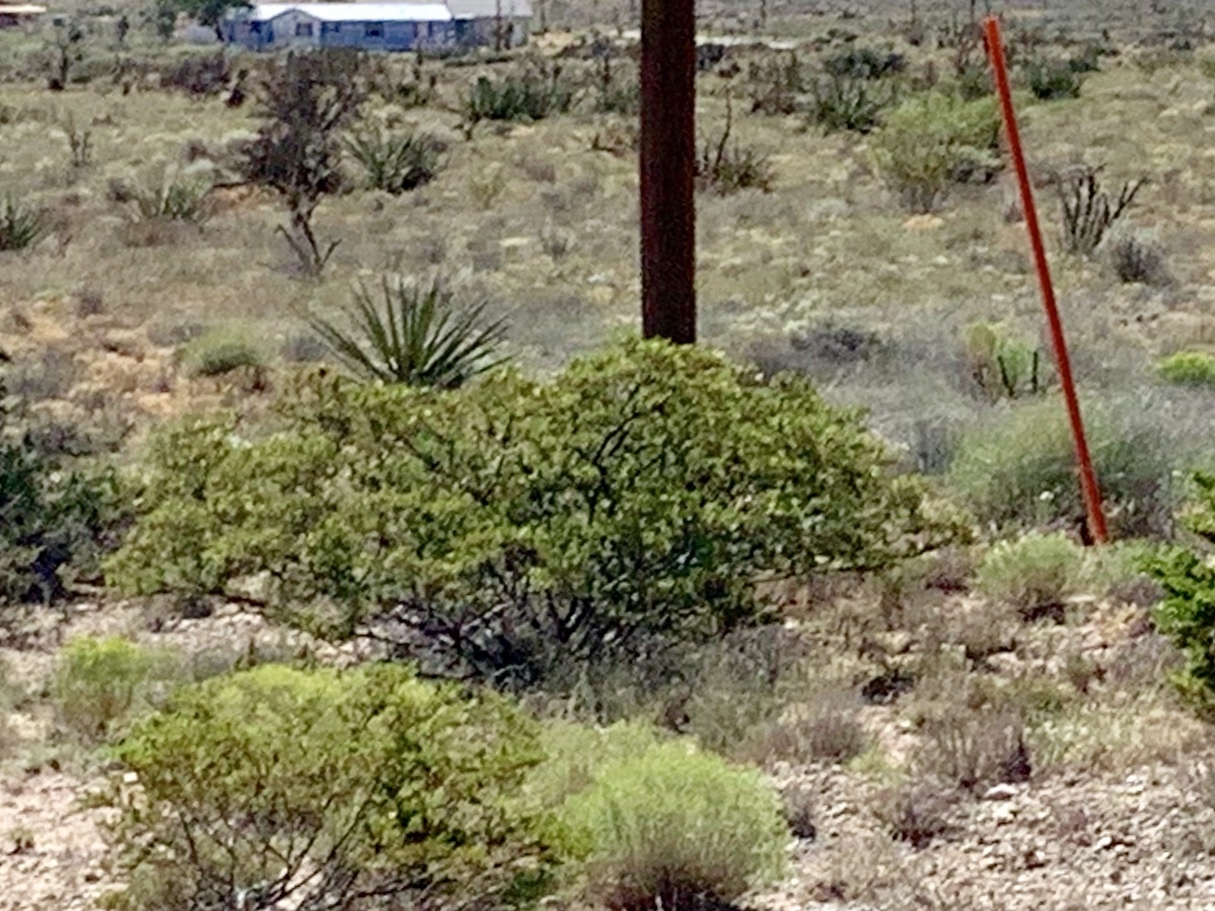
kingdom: Plantae
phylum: Tracheophyta
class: Magnoliopsida
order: Zygophyllales
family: Zygophyllaceae
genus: Larrea
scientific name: Larrea tridentata
